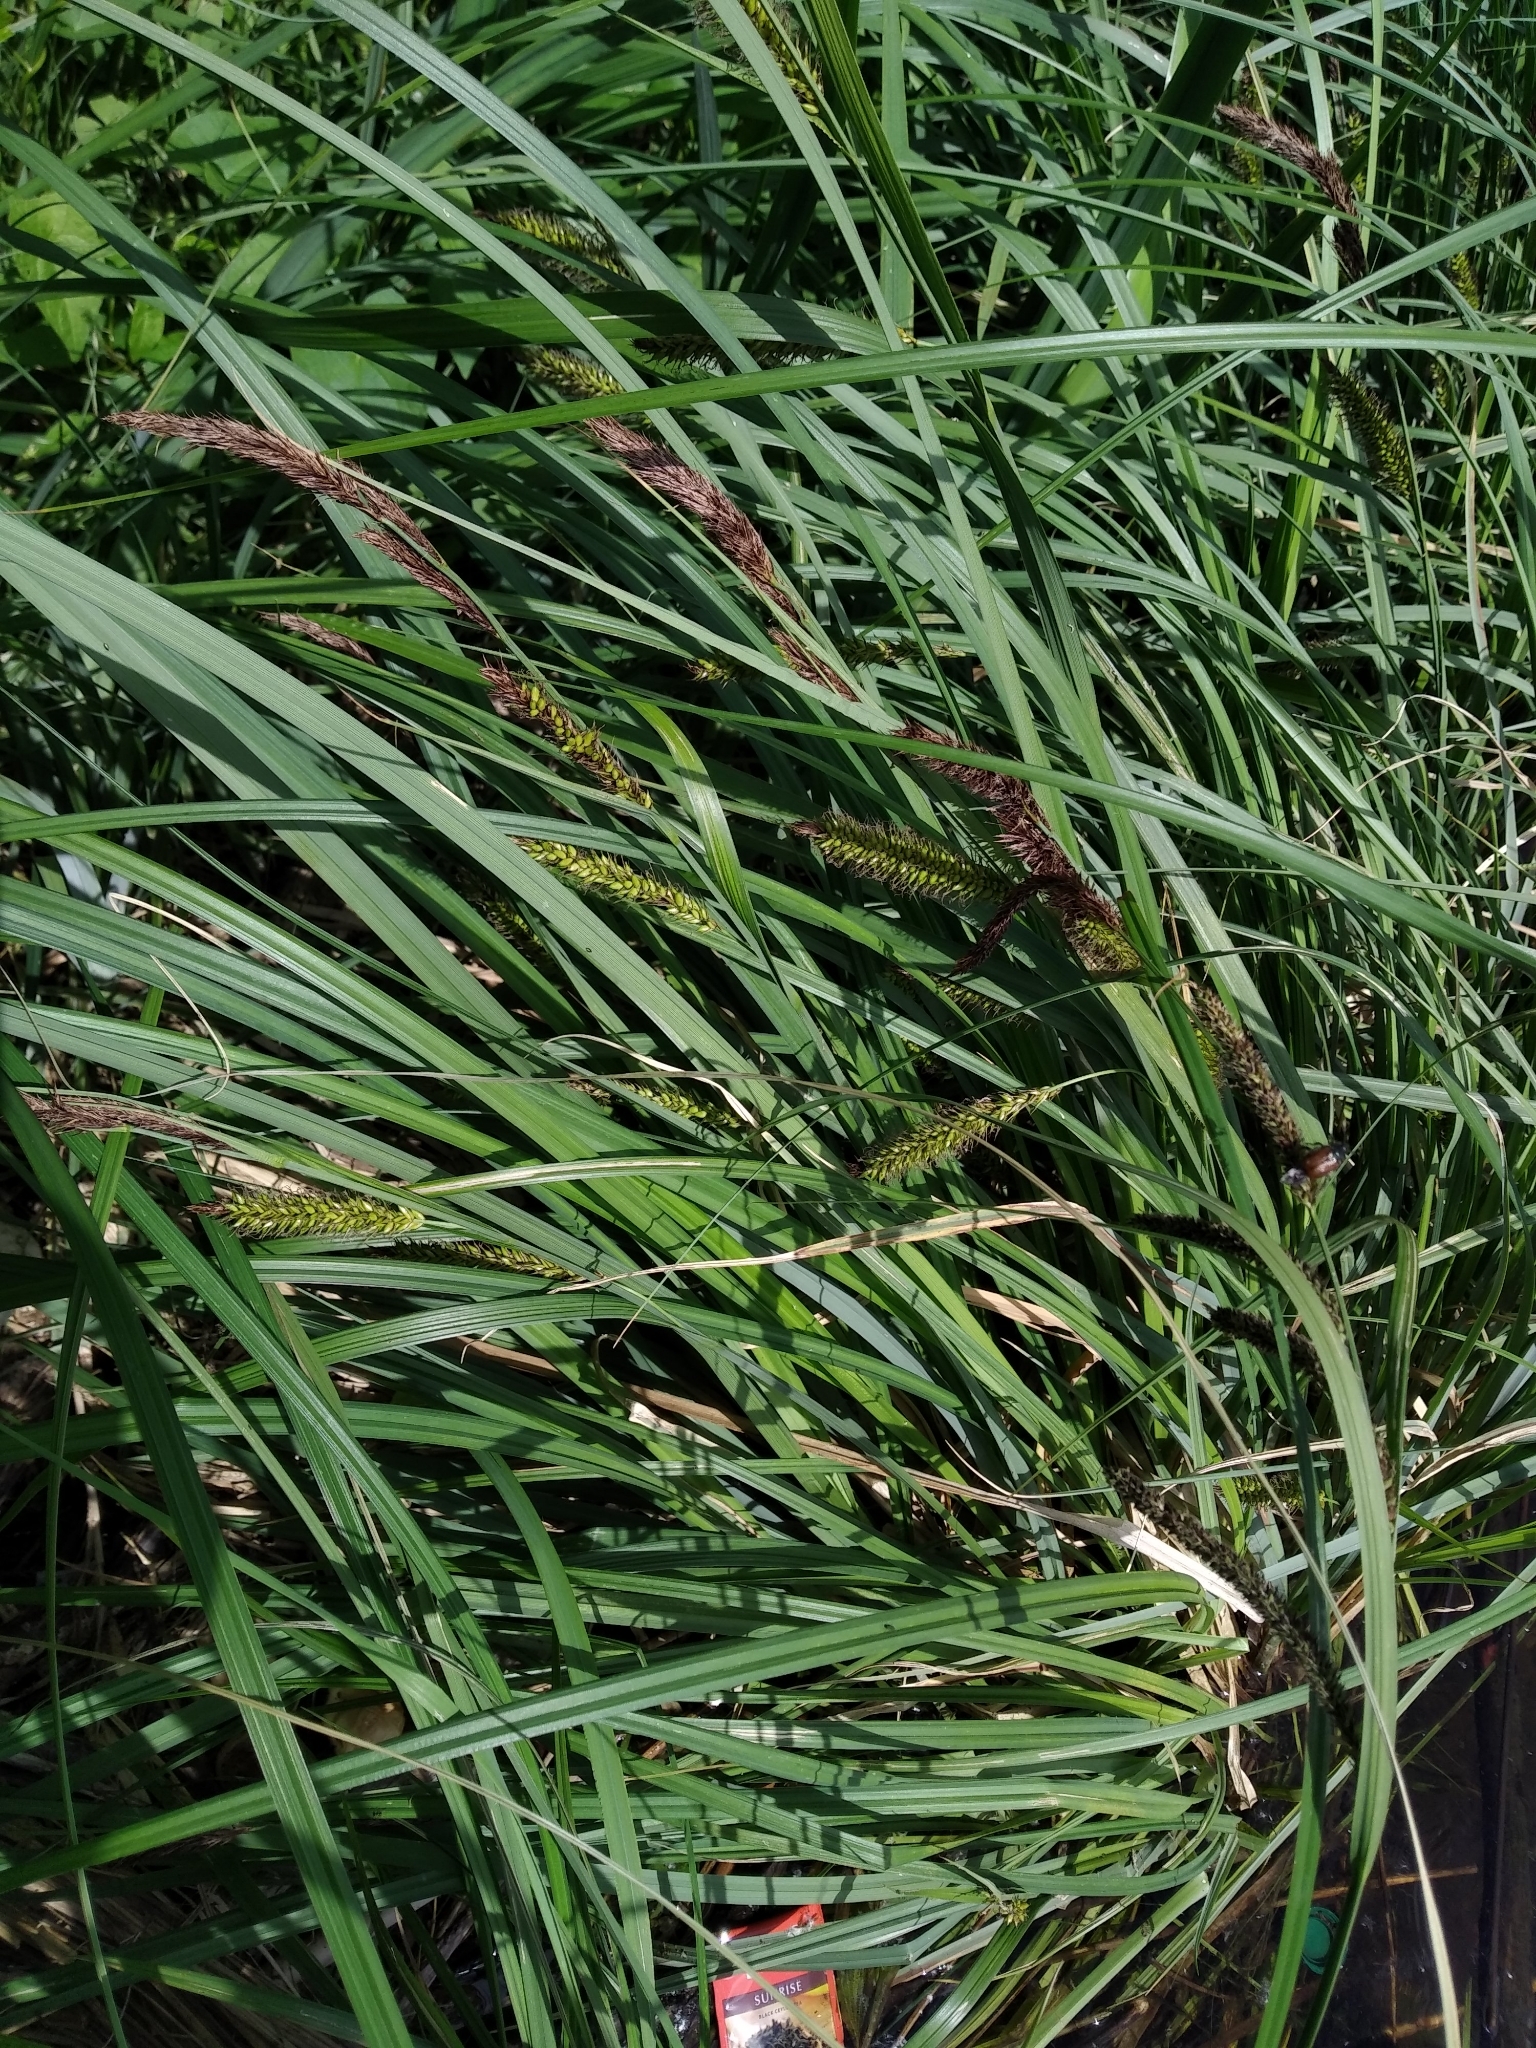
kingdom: Plantae
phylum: Tracheophyta
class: Liliopsida
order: Poales
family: Cyperaceae
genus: Carex
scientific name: Carex acuta
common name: Slender tufted-sedge
